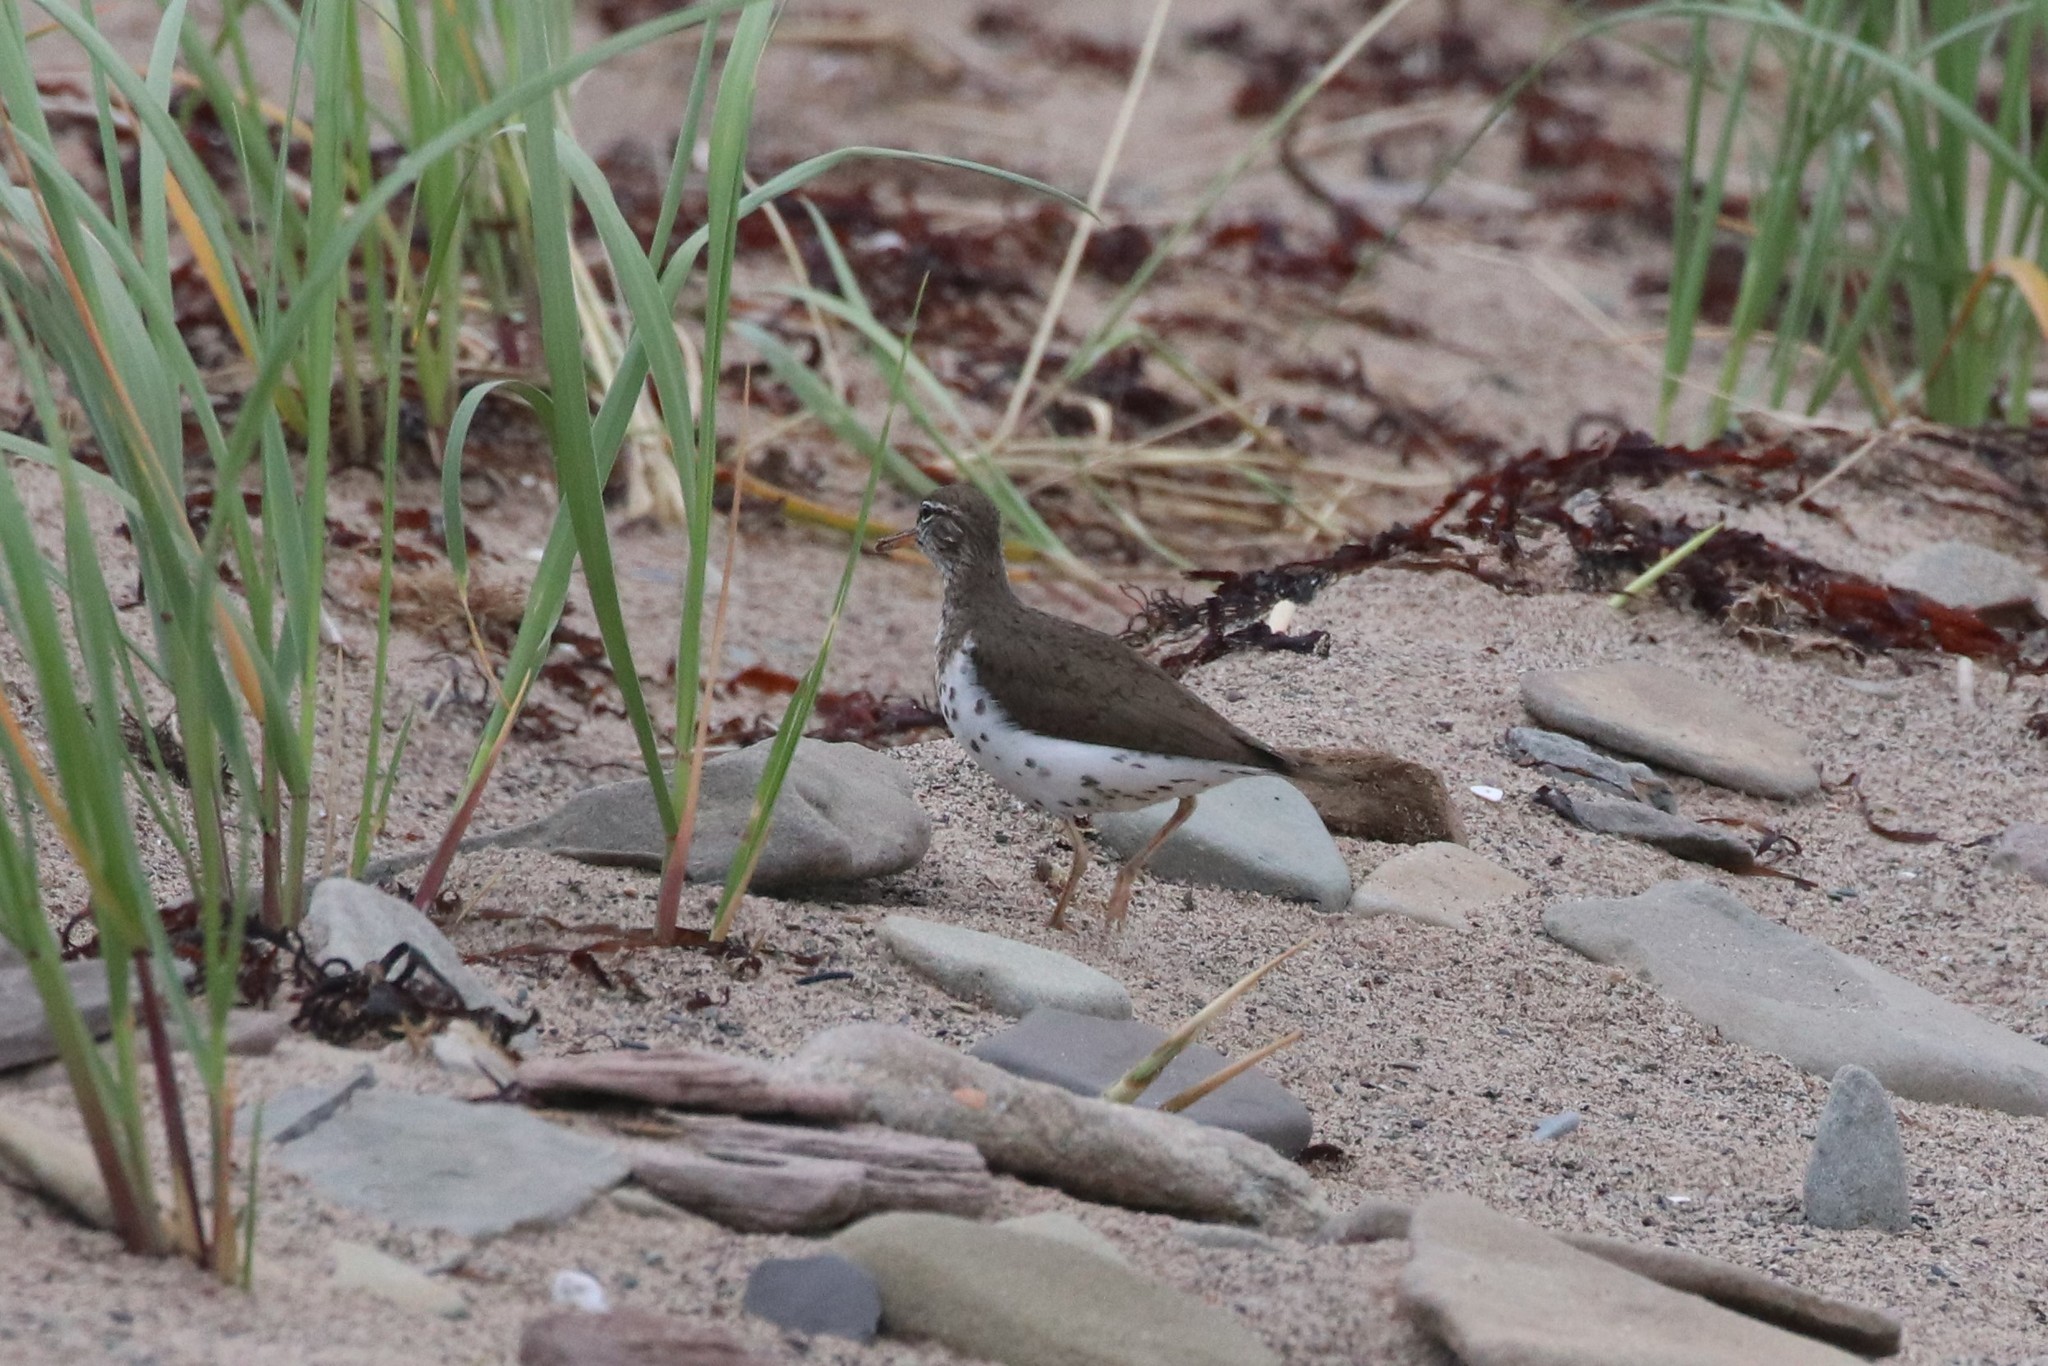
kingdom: Animalia
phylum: Chordata
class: Aves
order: Charadriiformes
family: Scolopacidae
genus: Actitis
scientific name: Actitis macularius
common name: Spotted sandpiper
